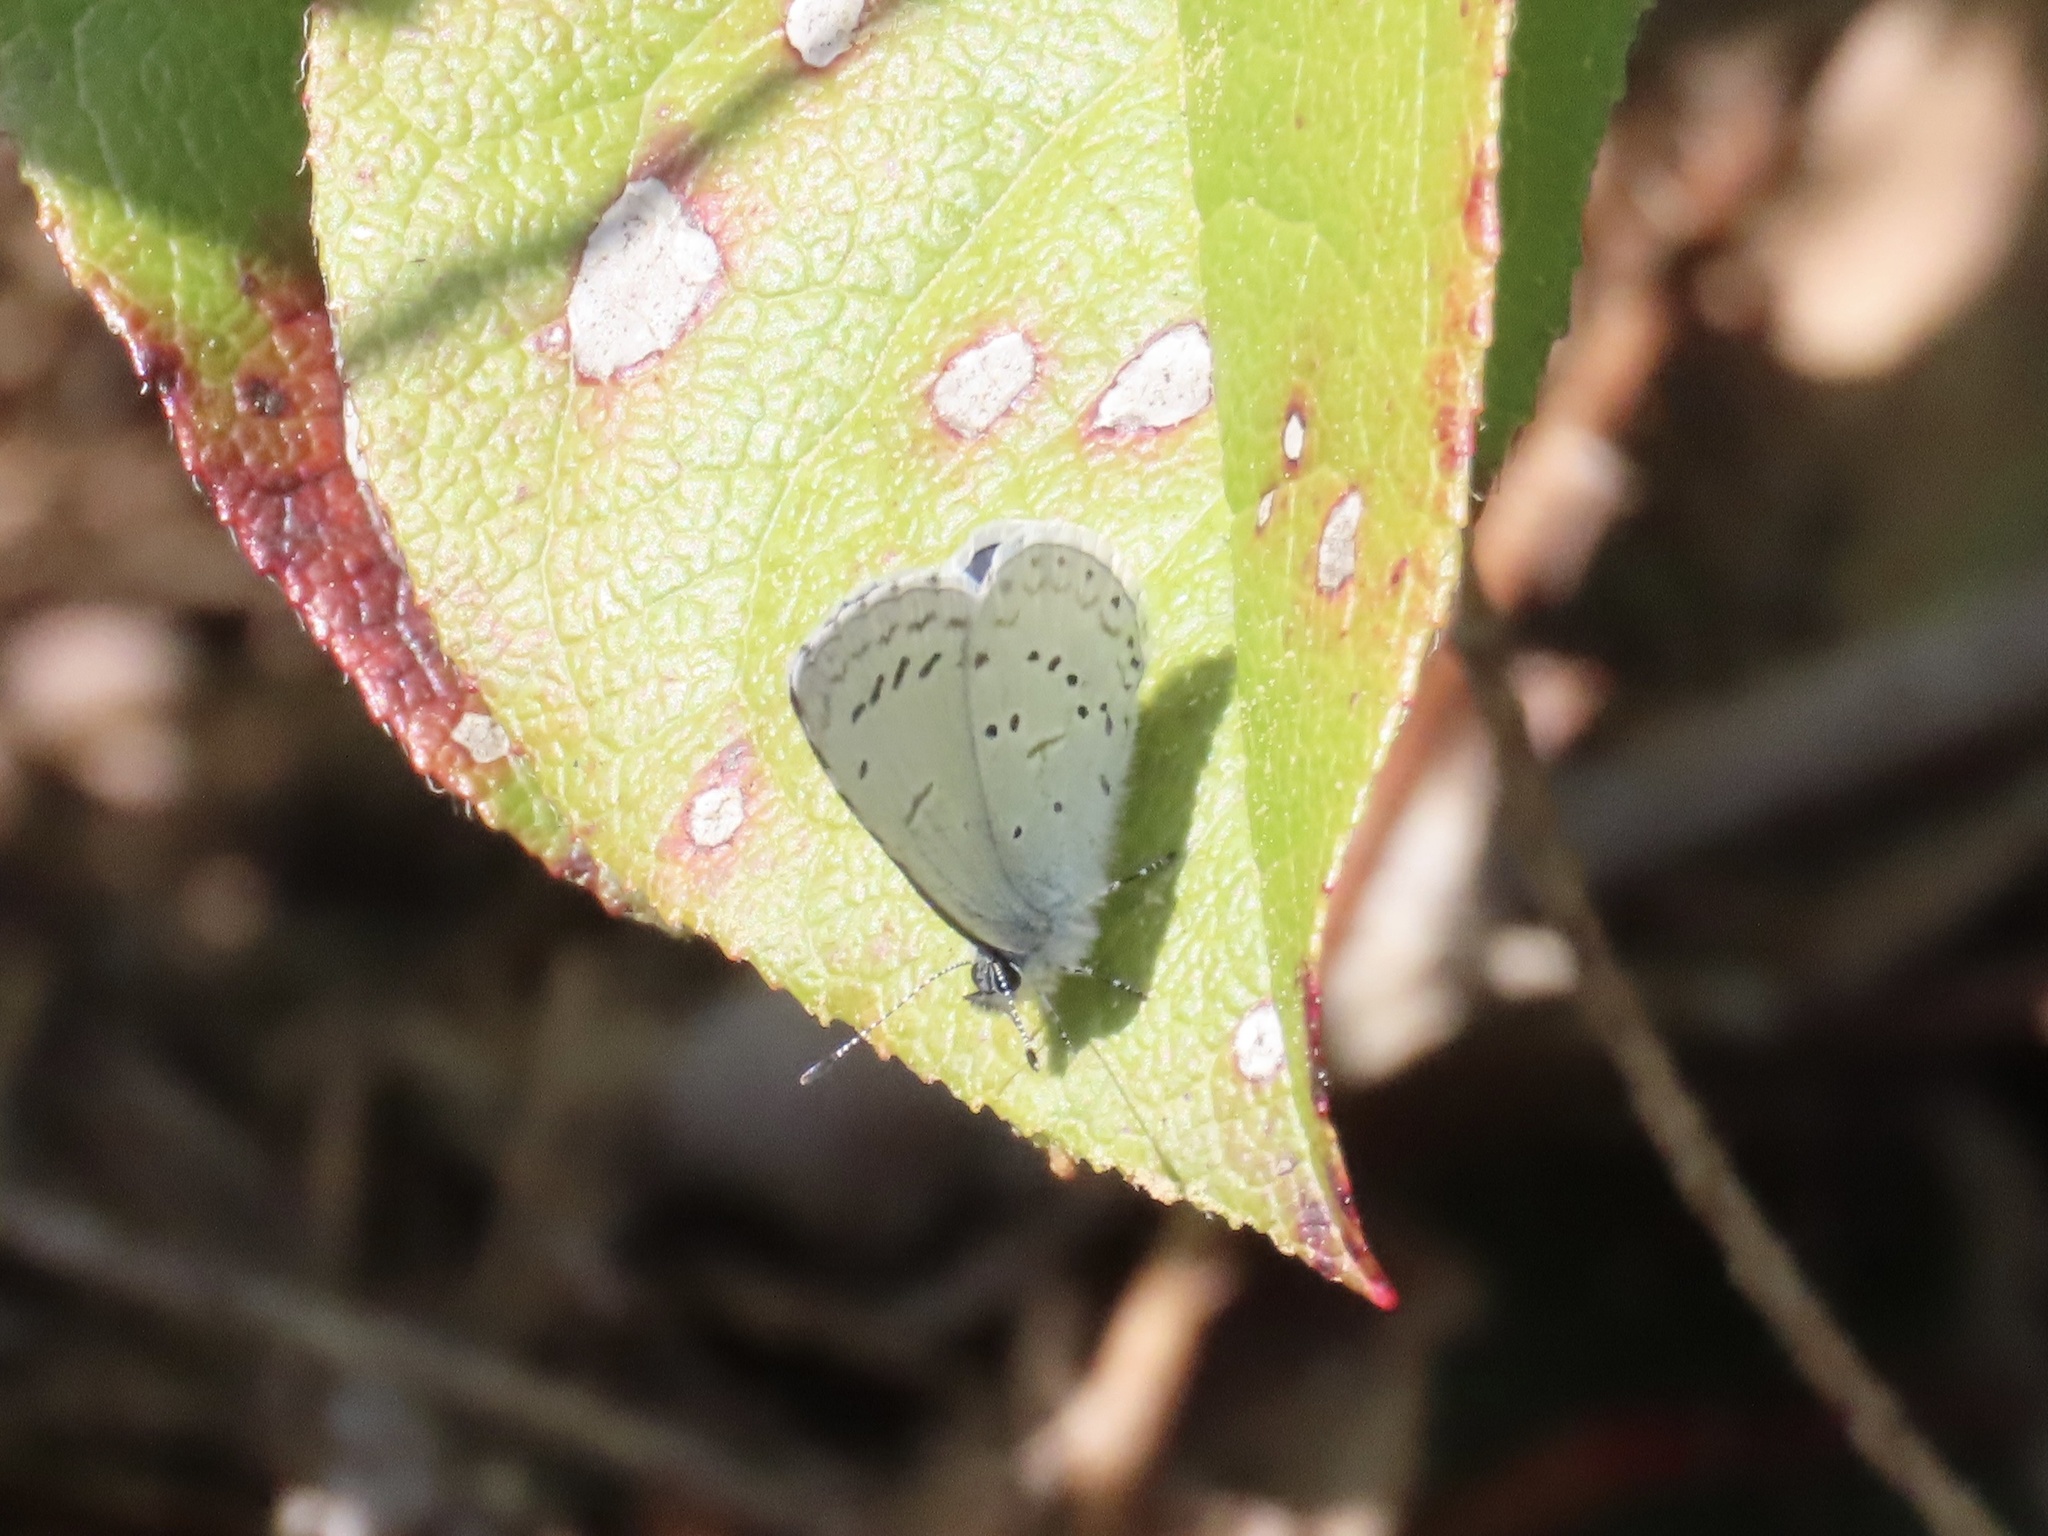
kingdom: Animalia
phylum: Arthropoda
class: Insecta
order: Lepidoptera
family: Lycaenidae
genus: Celastrina
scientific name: Celastrina ladon
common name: Spring azure
